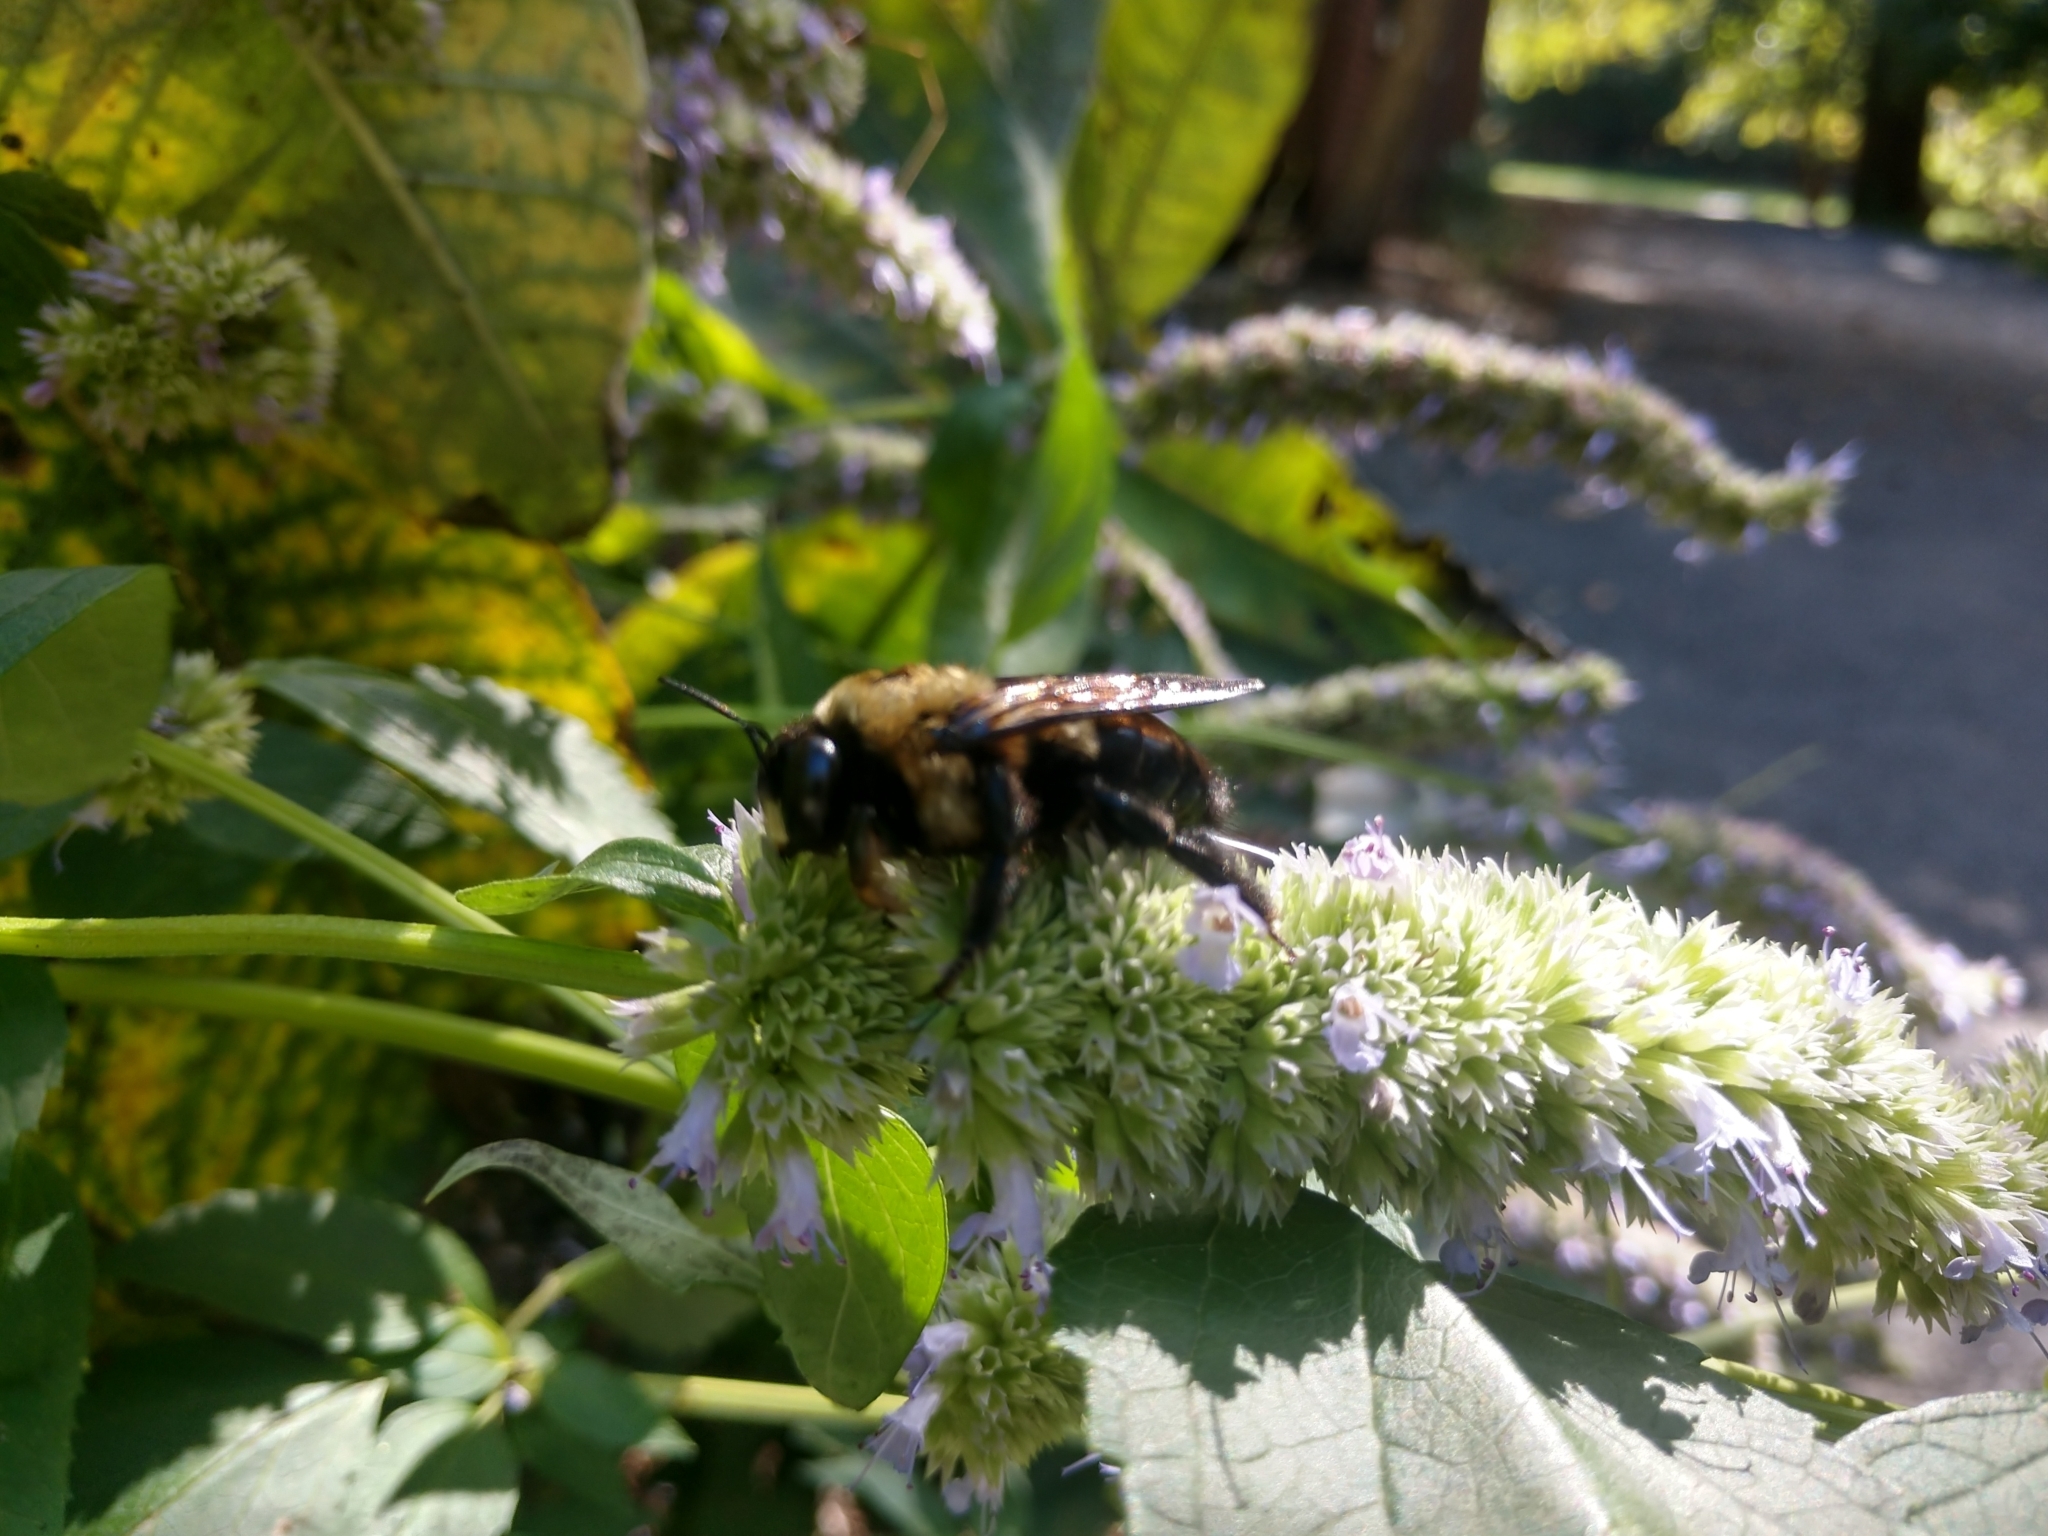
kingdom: Animalia
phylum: Arthropoda
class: Insecta
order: Hymenoptera
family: Apidae
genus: Xylocopa
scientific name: Xylocopa virginica
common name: Carpenter bee
